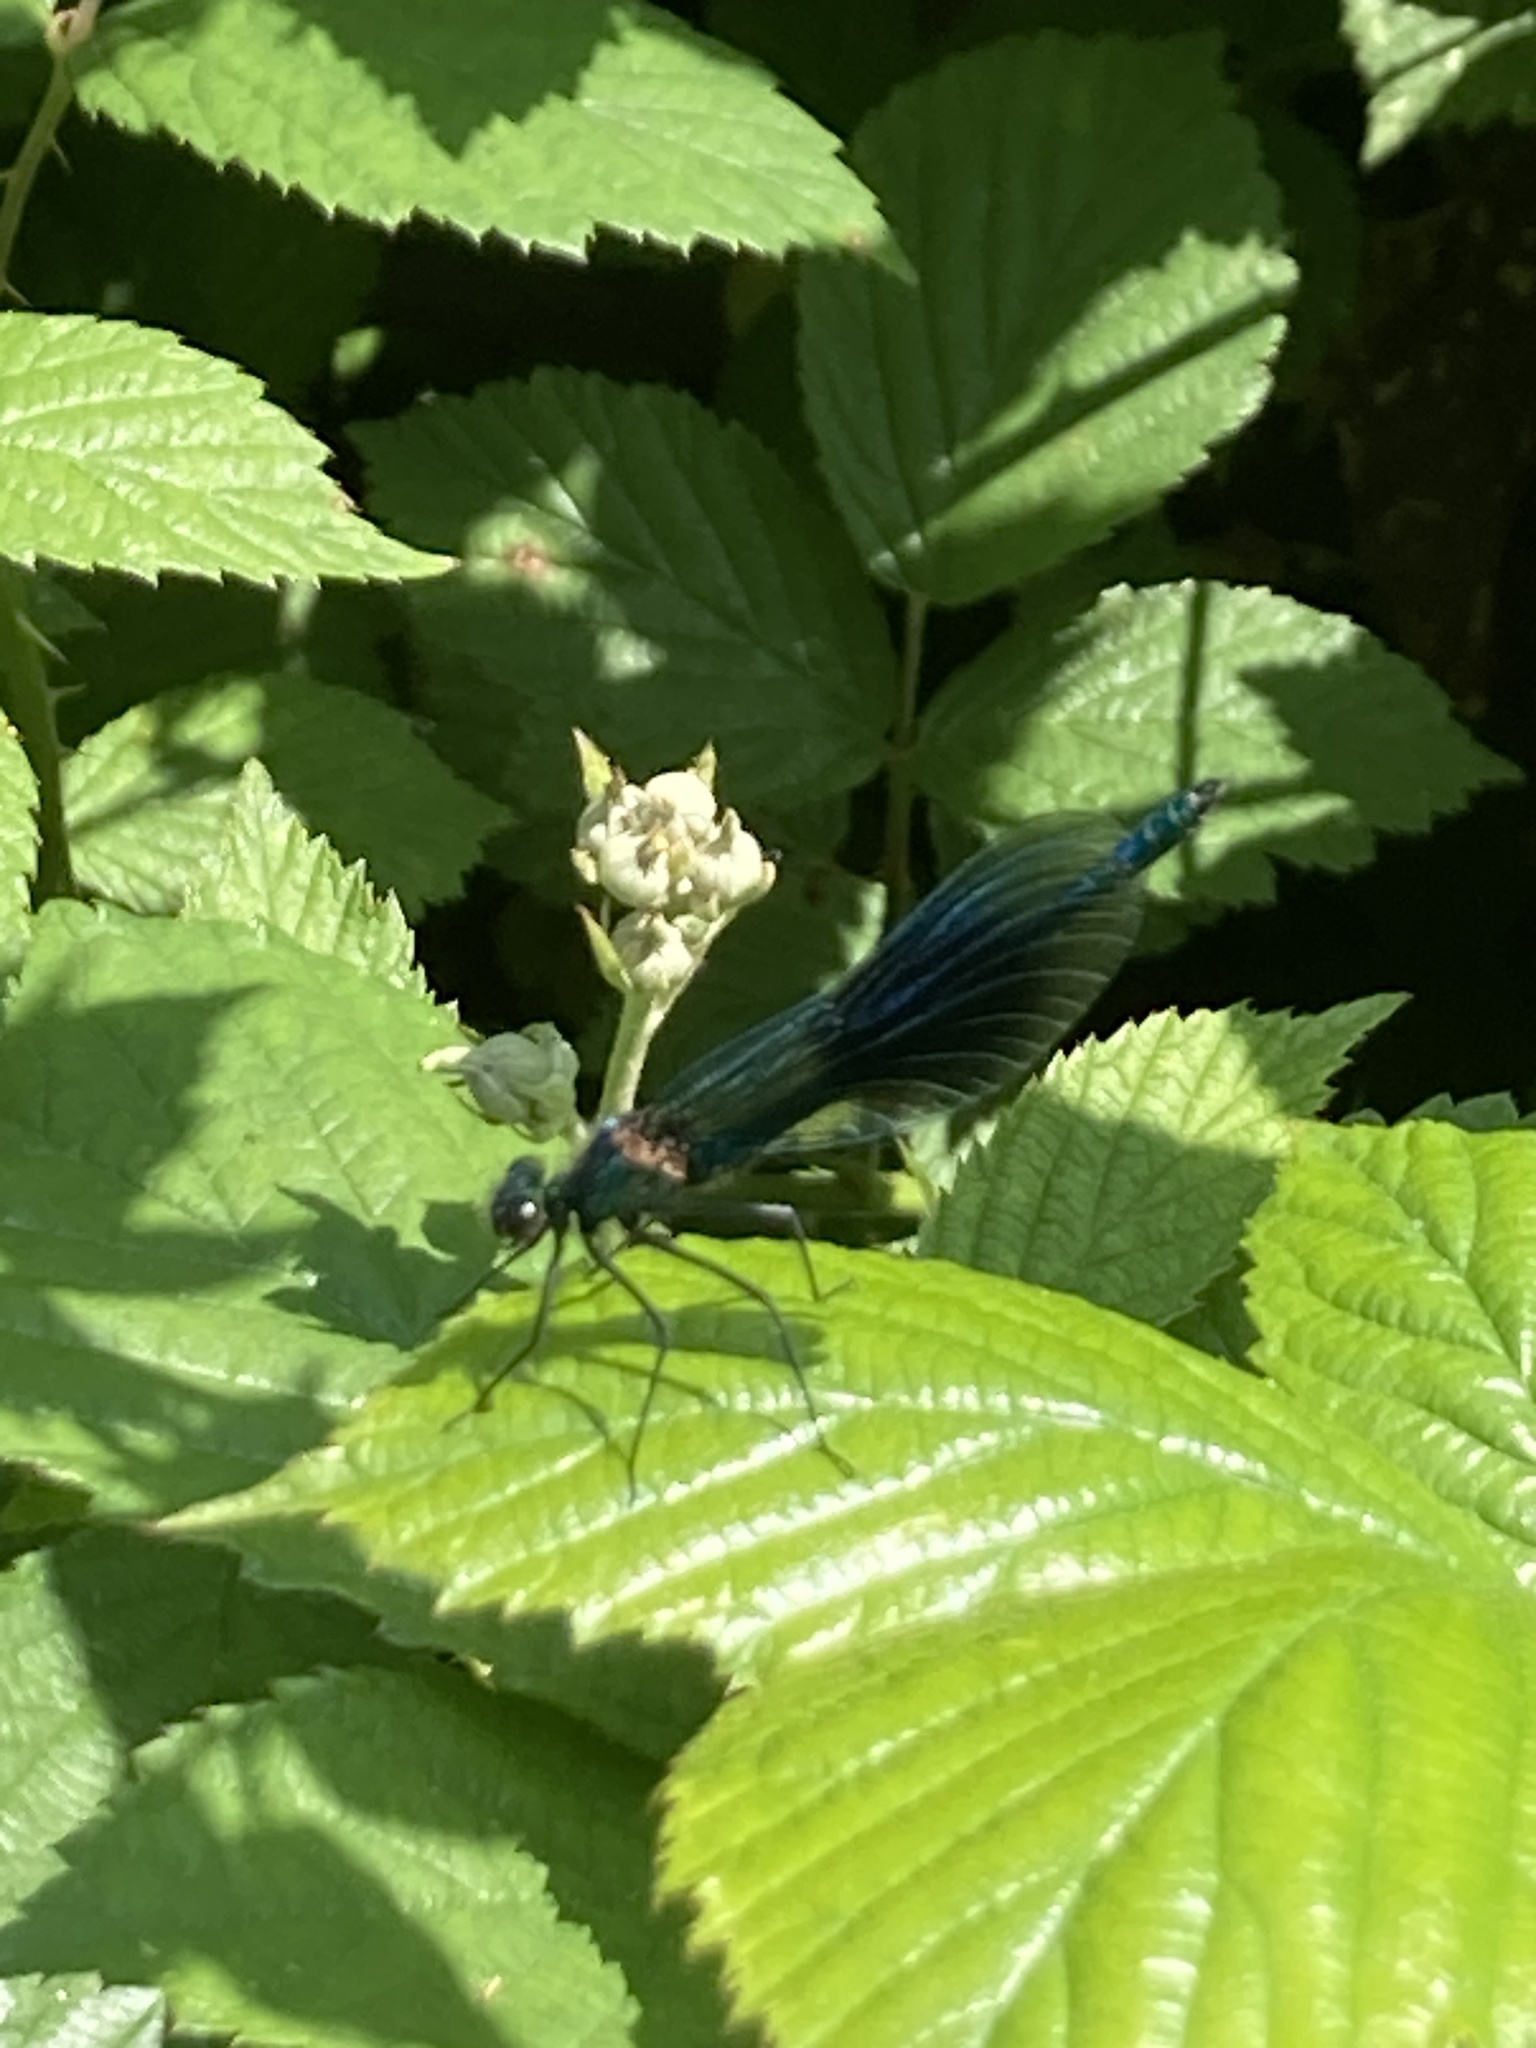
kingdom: Animalia
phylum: Arthropoda
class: Insecta
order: Odonata
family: Calopterygidae
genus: Calopteryx
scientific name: Calopteryx splendens
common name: Banded demoiselle
